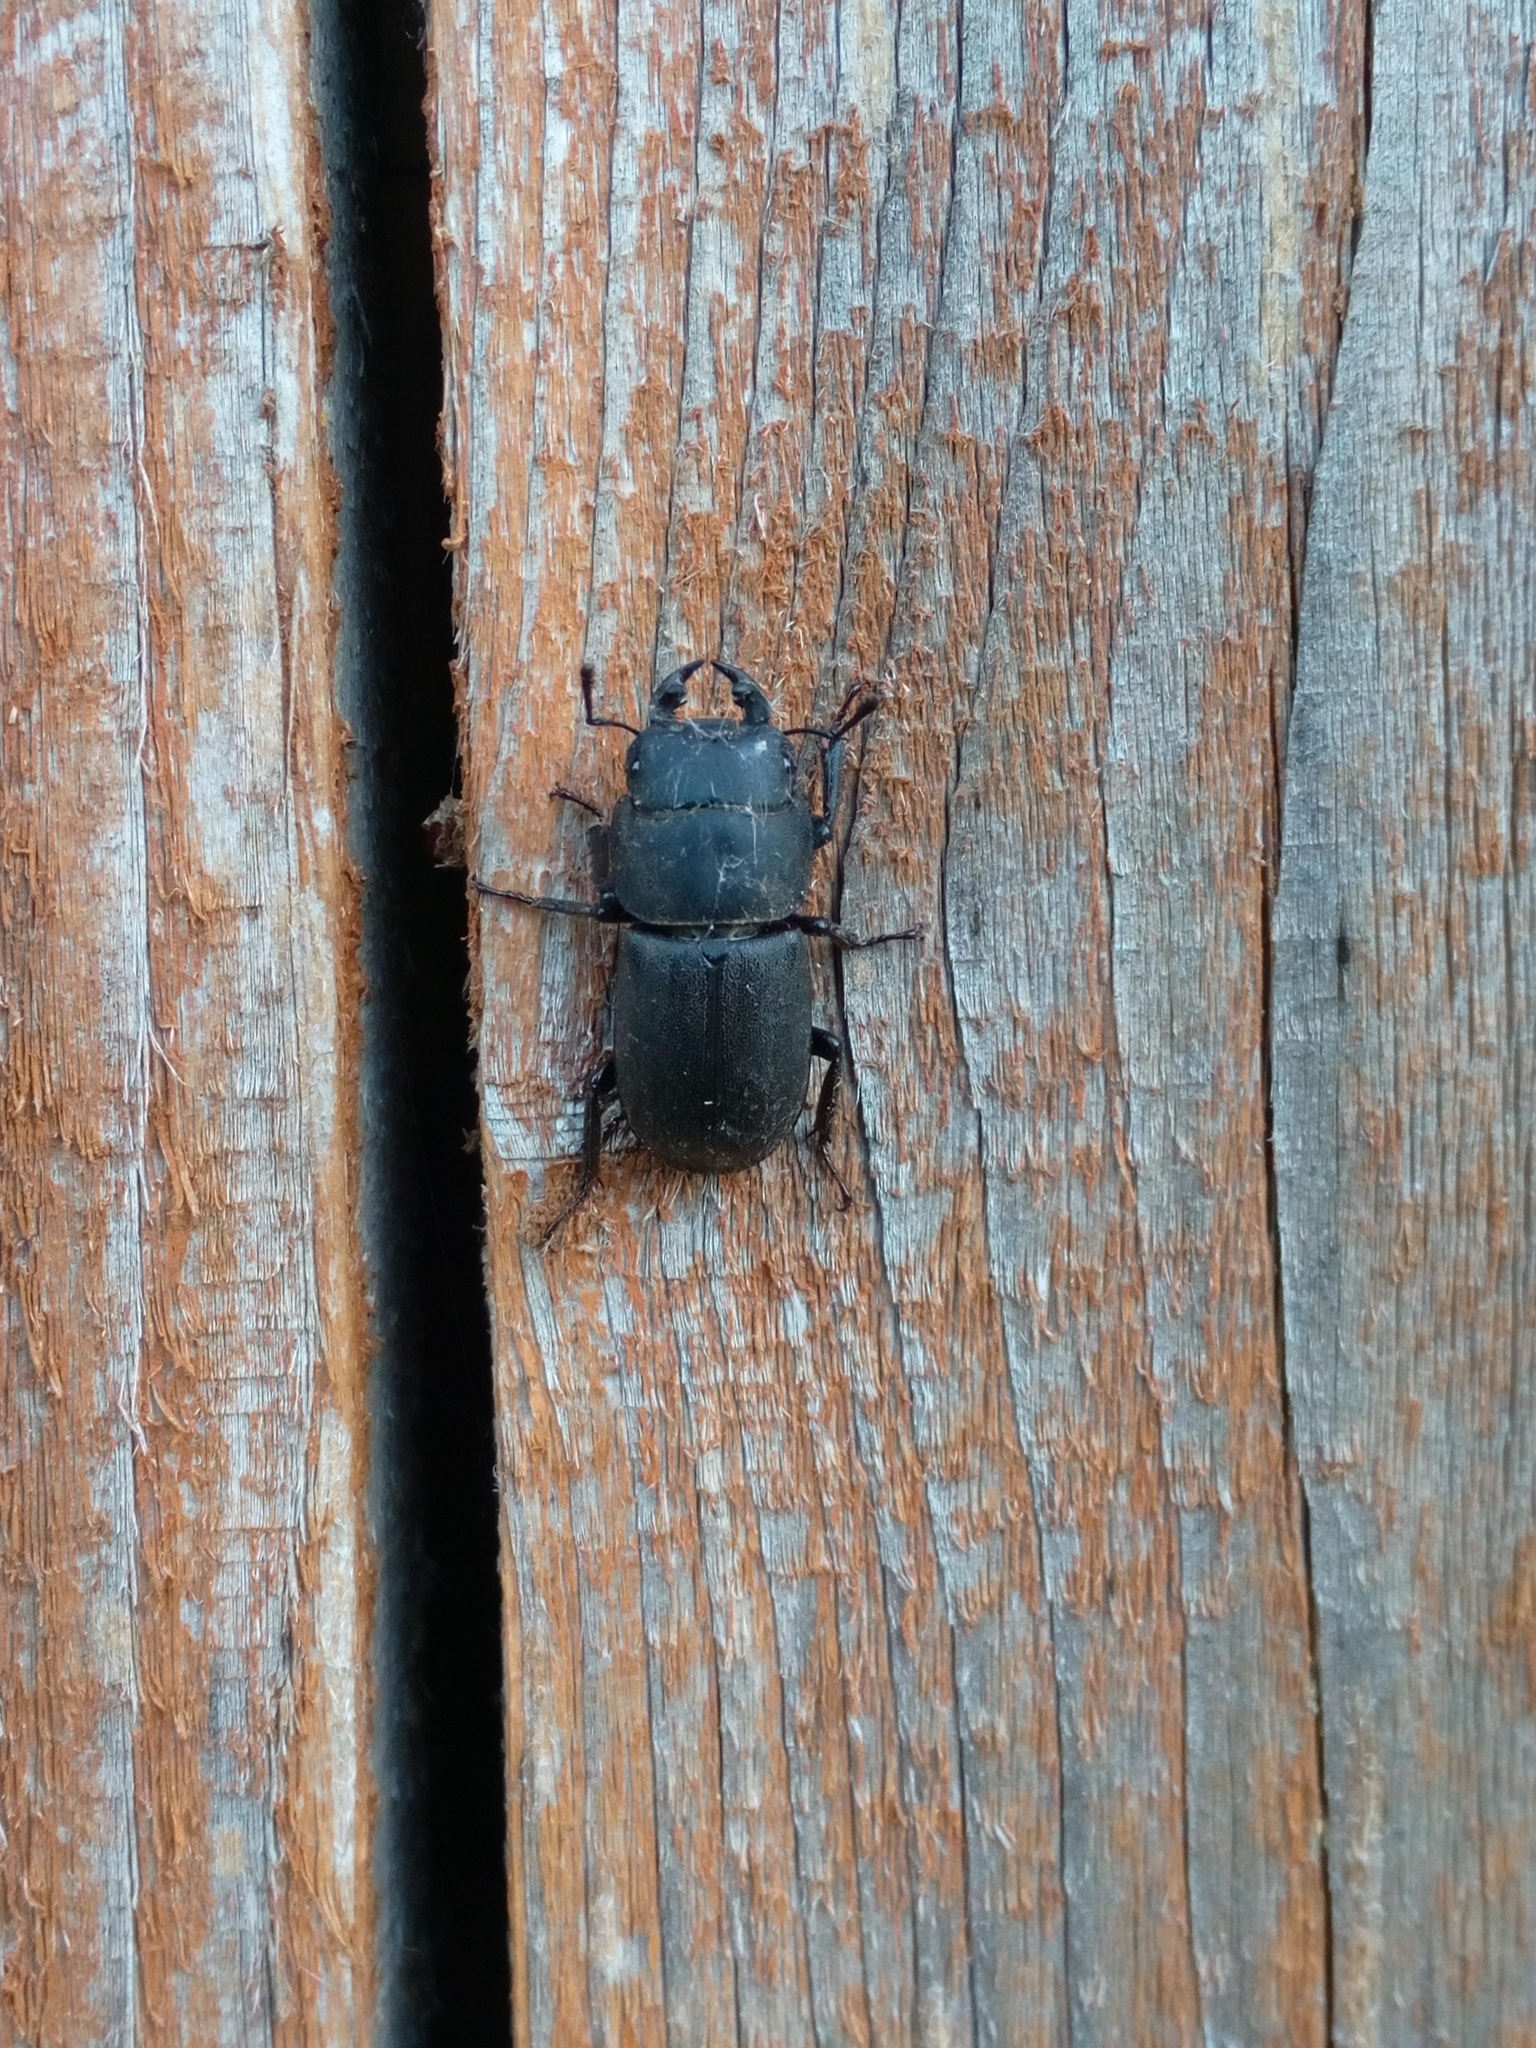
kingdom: Animalia
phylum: Arthropoda
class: Insecta
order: Coleoptera
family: Lucanidae
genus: Dorcus
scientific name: Dorcus parallelipipedus
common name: Lesser stag beetle
